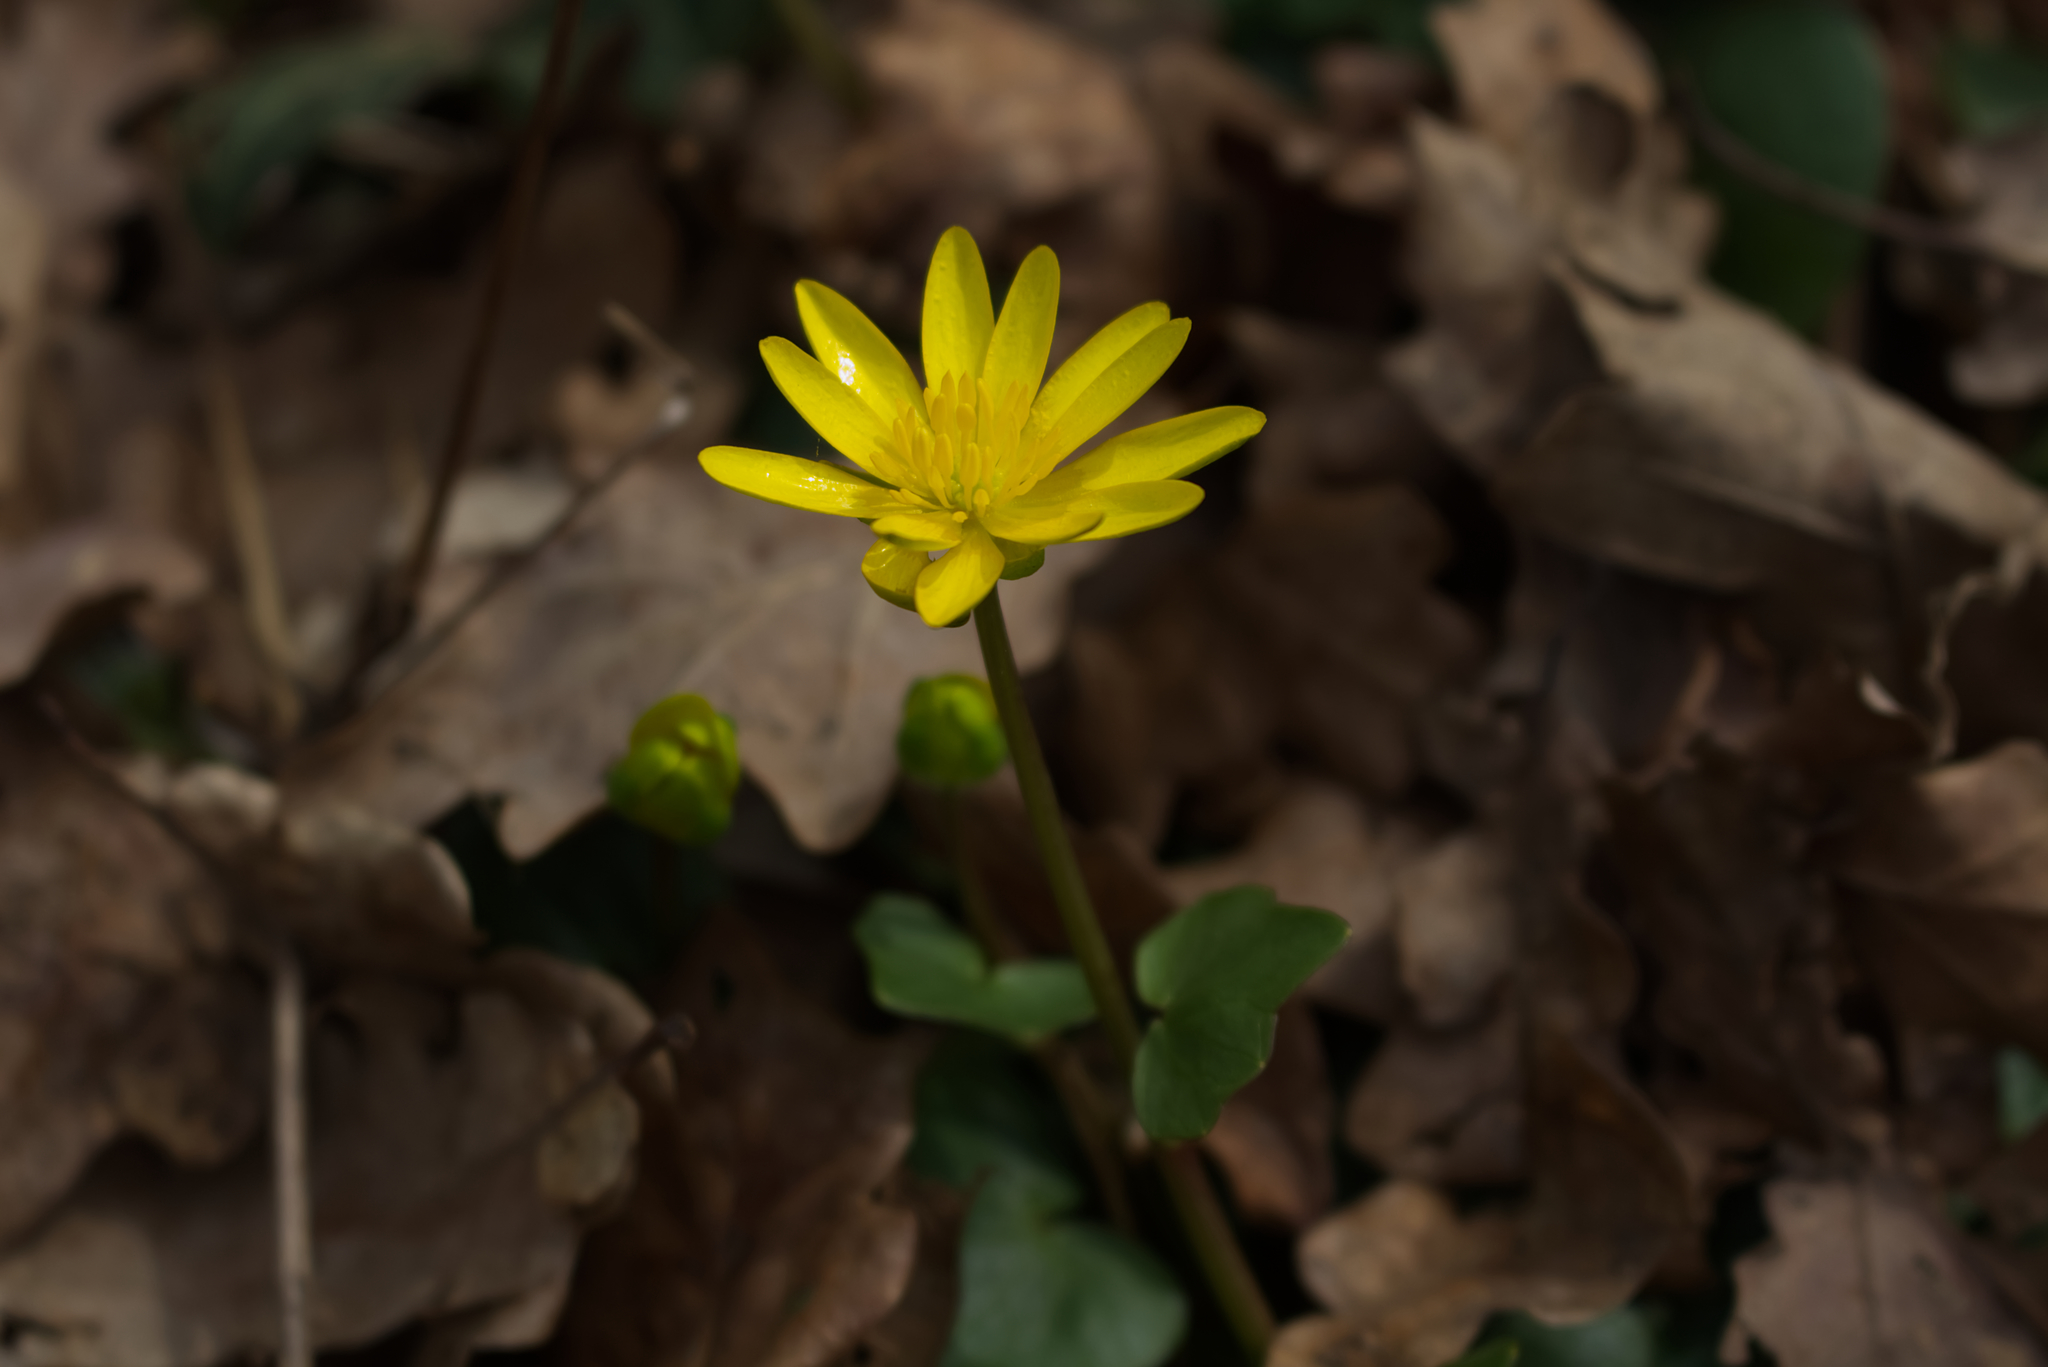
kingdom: Plantae
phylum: Tracheophyta
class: Magnoliopsida
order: Ranunculales
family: Ranunculaceae
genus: Ficaria
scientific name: Ficaria verna
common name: Lesser celandine
